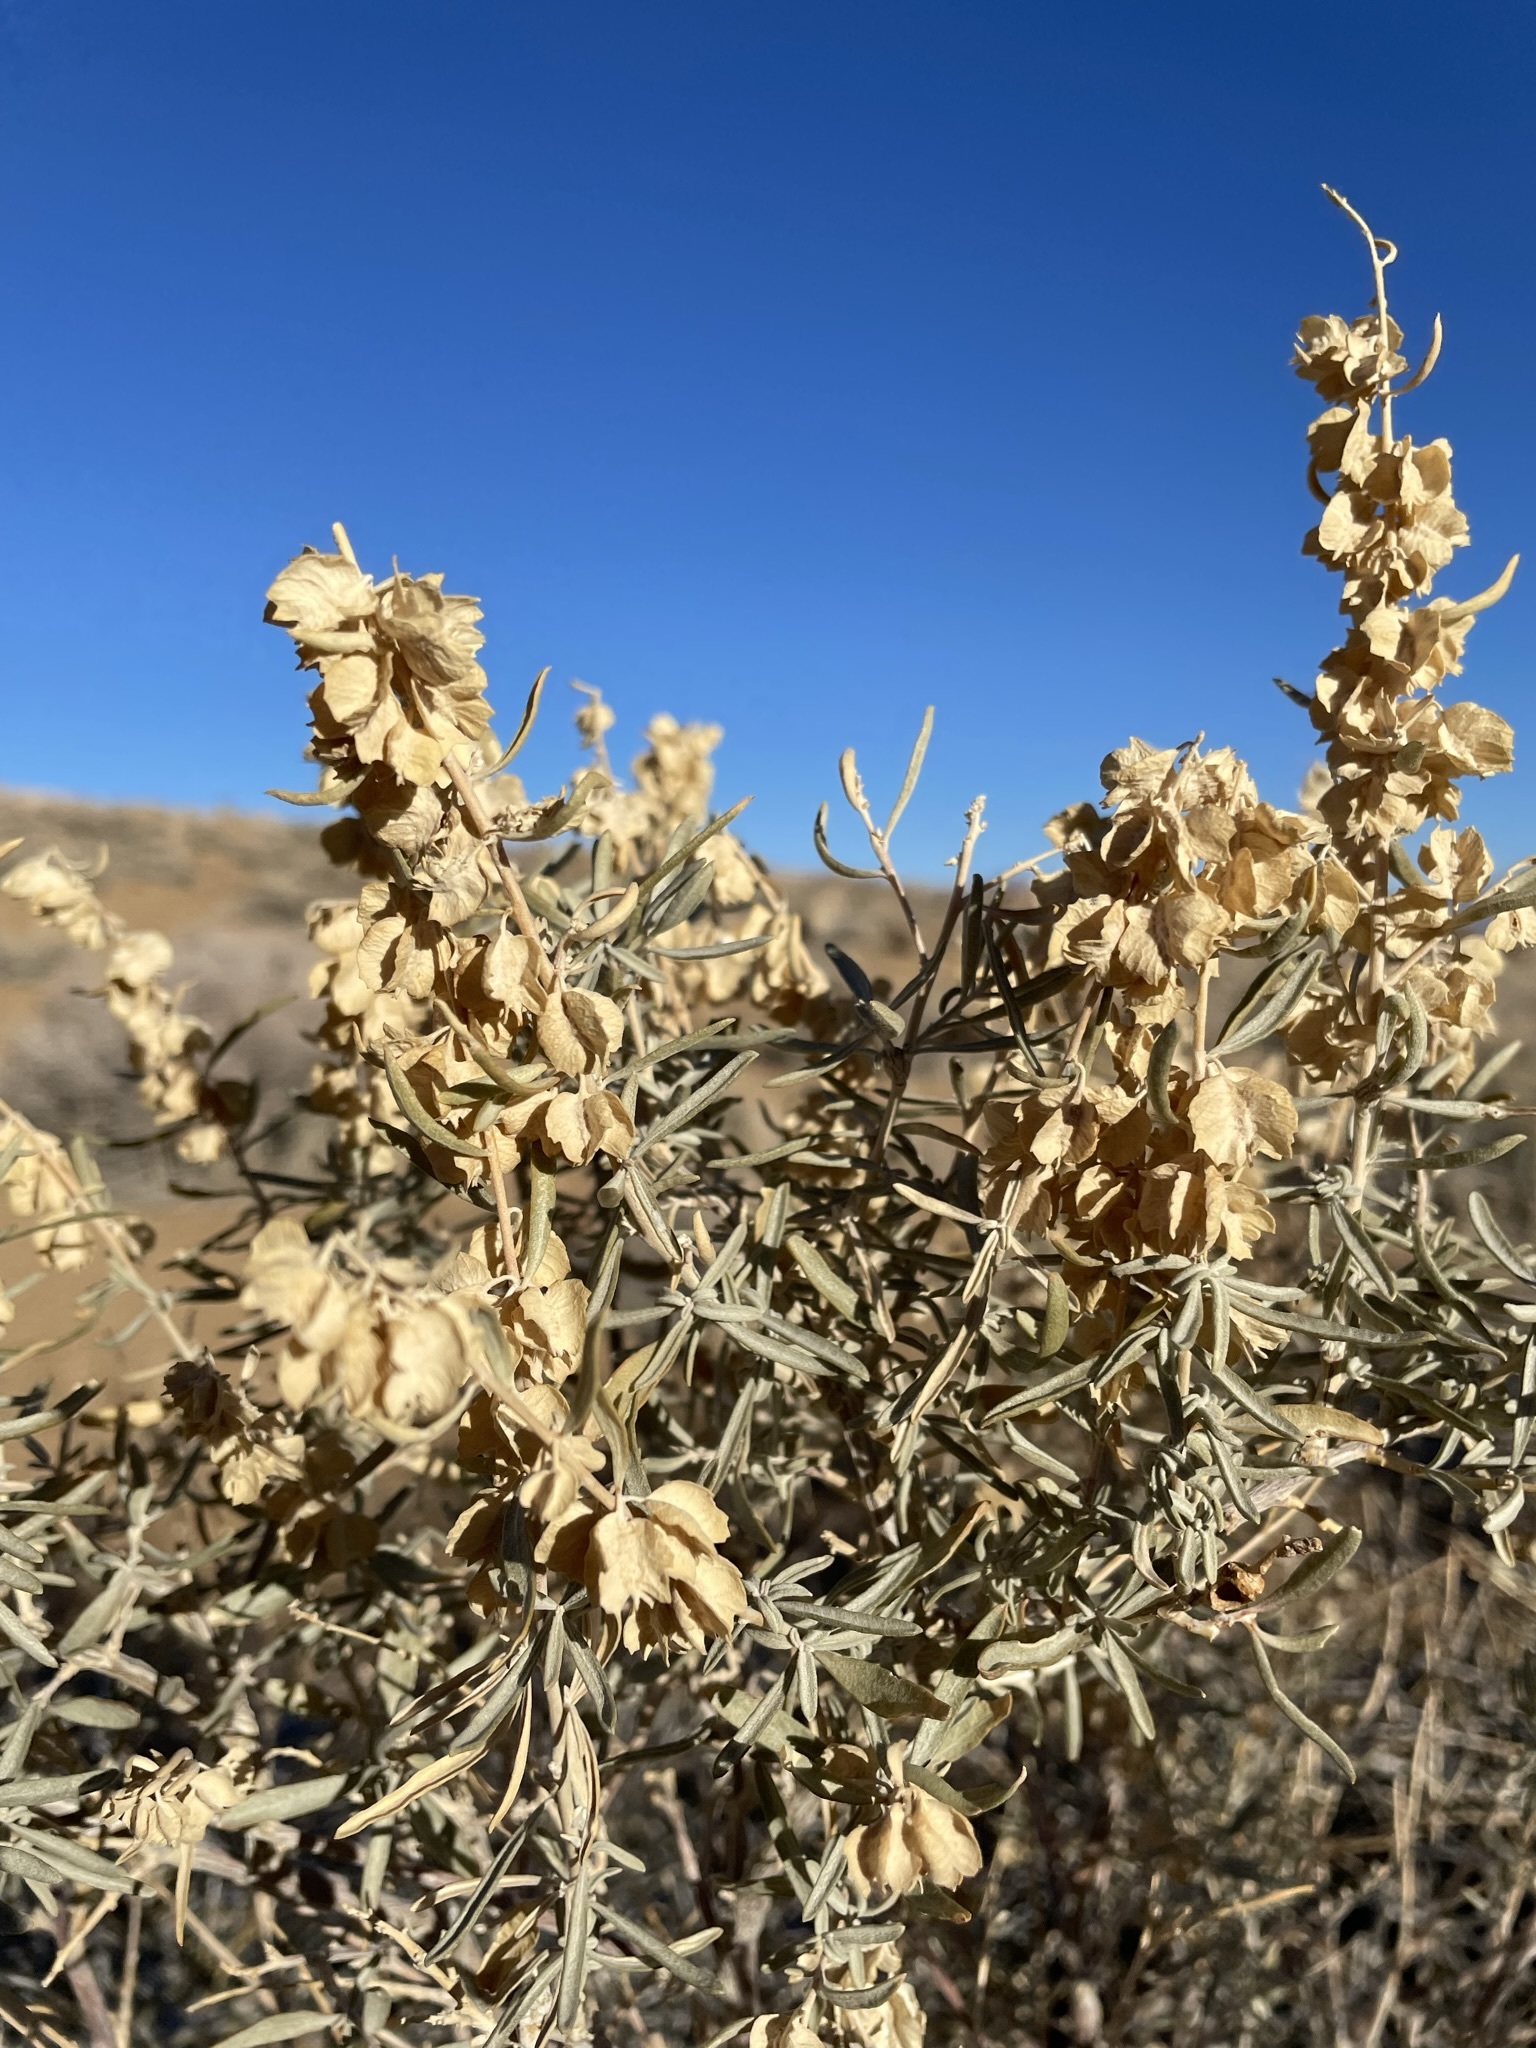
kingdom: Plantae
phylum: Tracheophyta
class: Magnoliopsida
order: Caryophyllales
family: Amaranthaceae
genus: Atriplex
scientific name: Atriplex canescens
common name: Four-wing saltbush
